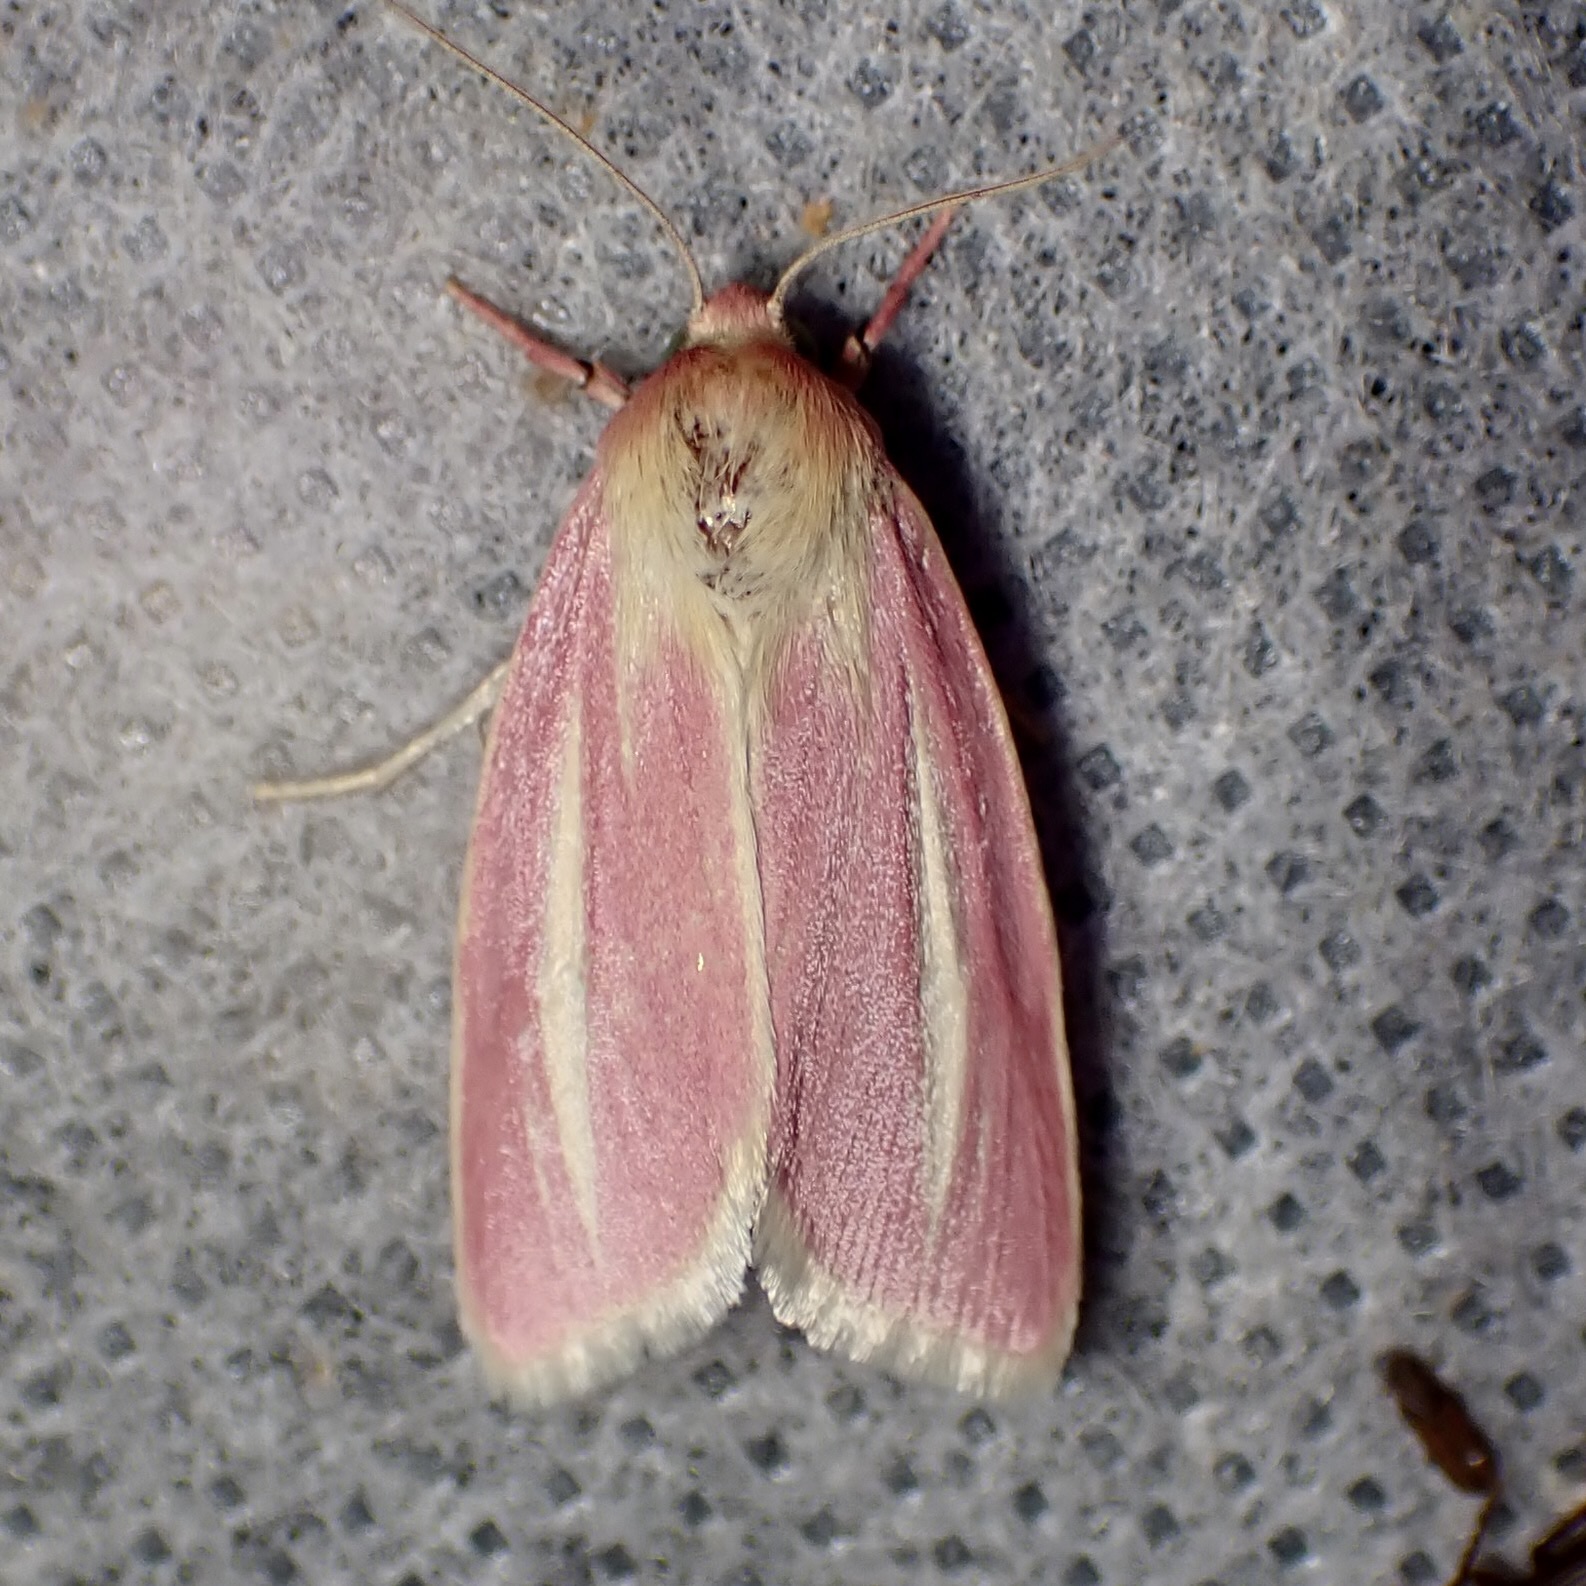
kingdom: Animalia
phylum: Arthropoda
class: Insecta
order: Lepidoptera
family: Noctuidae
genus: Heliocheilus
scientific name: Heliocheilus julia
